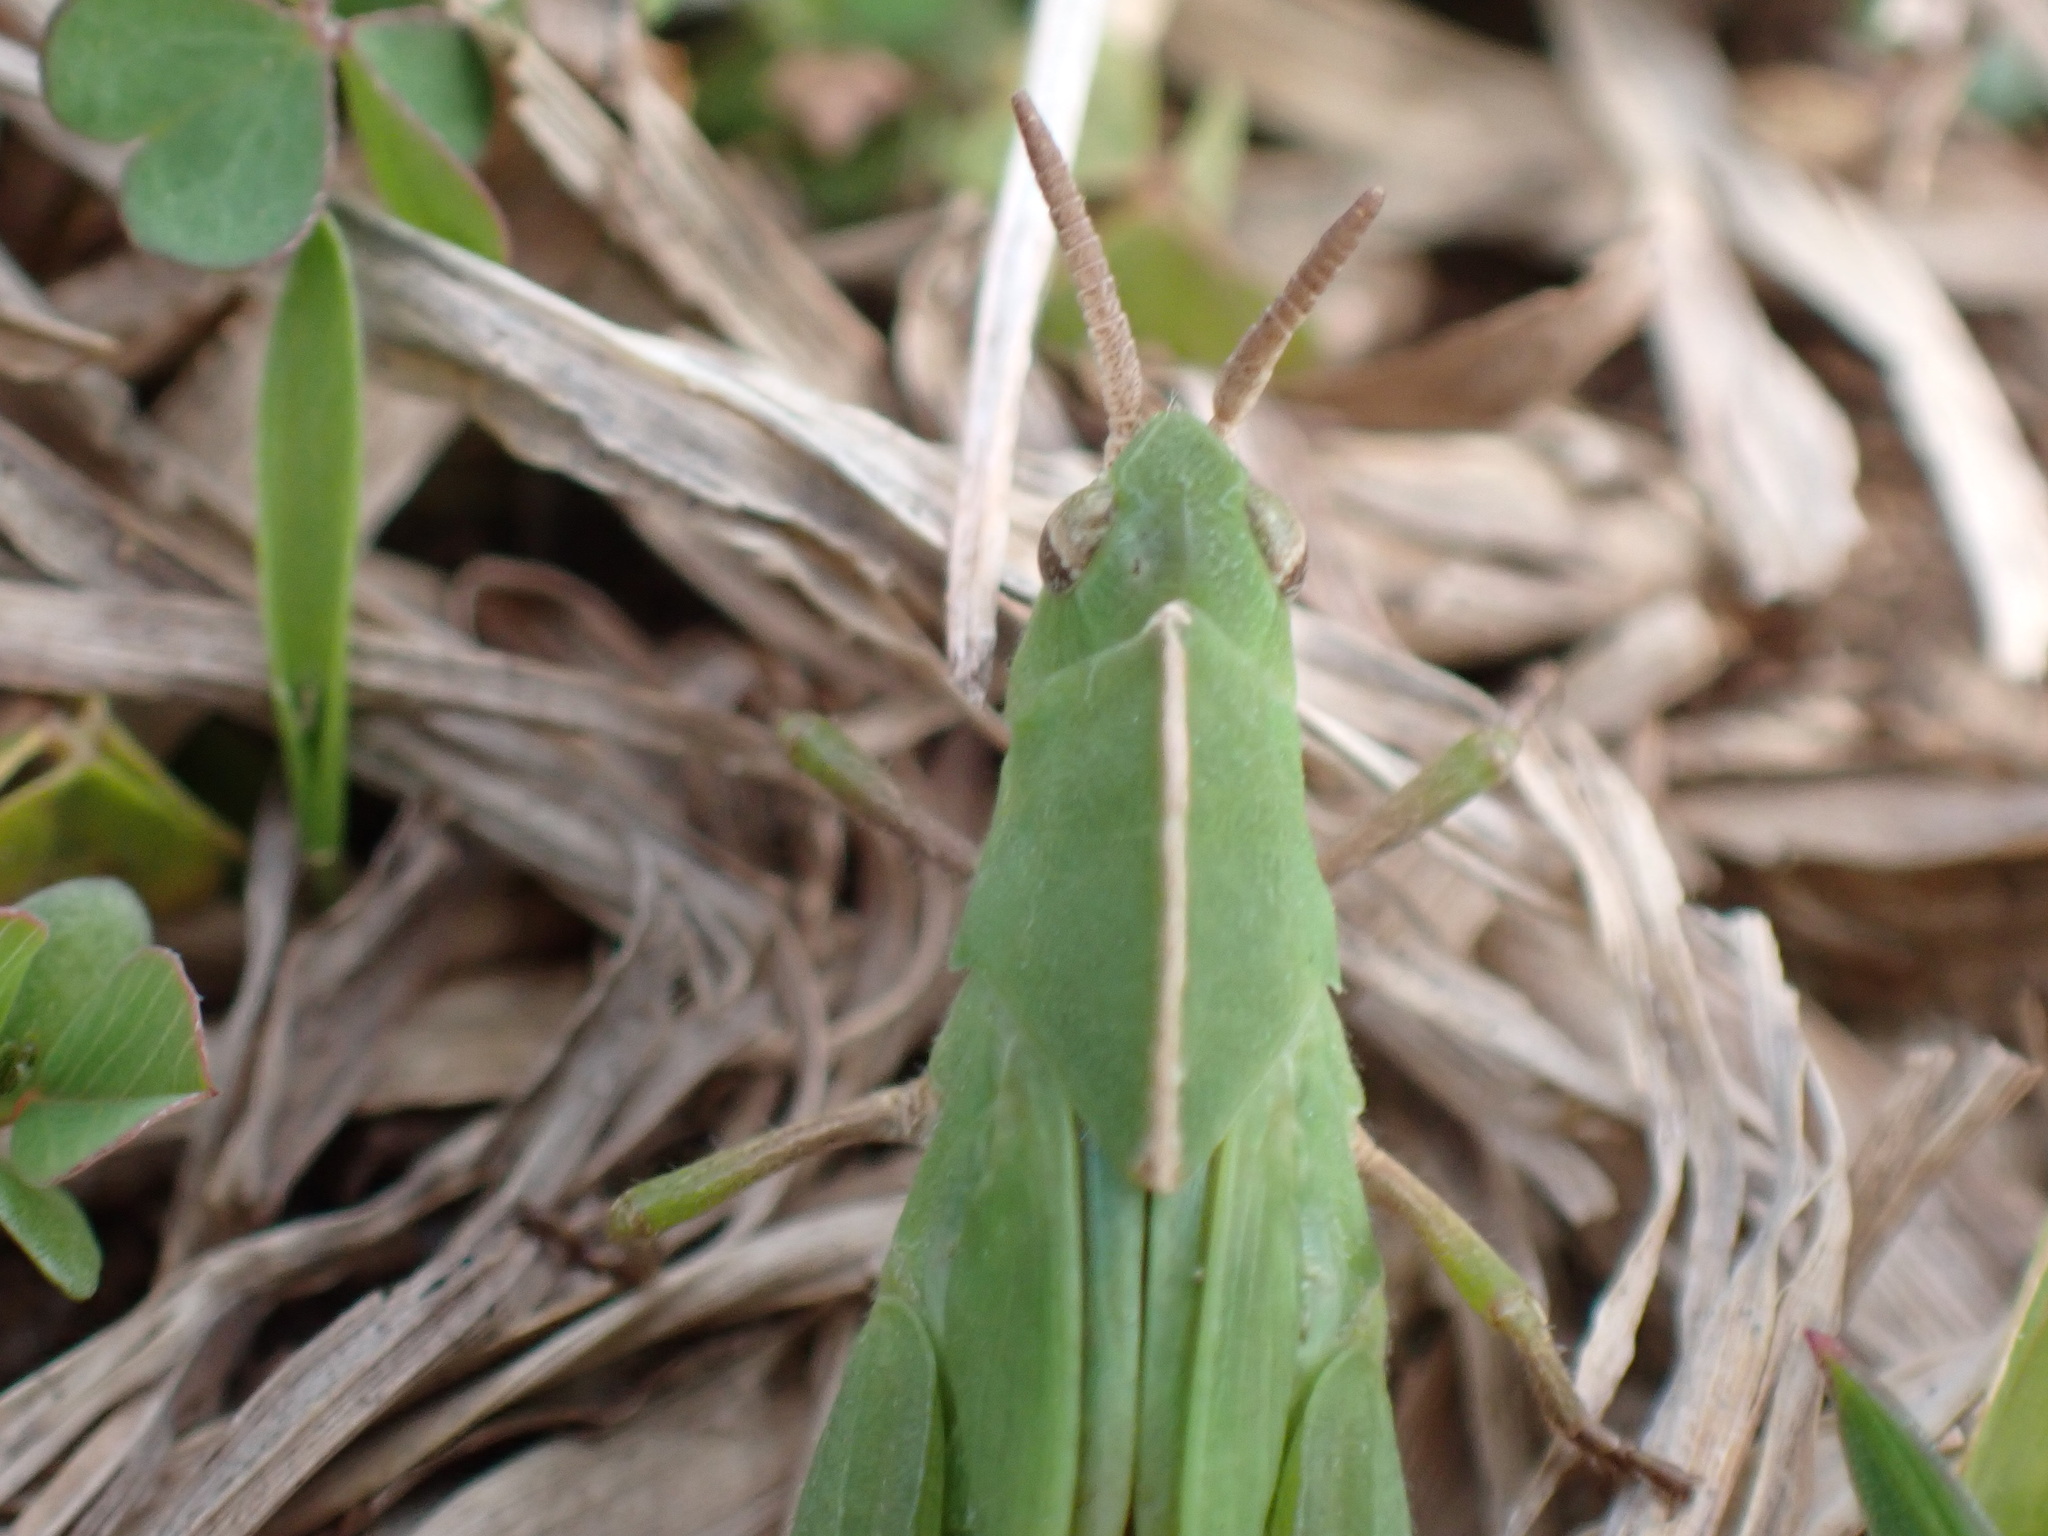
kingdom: Animalia
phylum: Arthropoda
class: Insecta
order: Orthoptera
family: Acrididae
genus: Chortophaga
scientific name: Chortophaga viridifasciata
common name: Green-striped grasshopper
